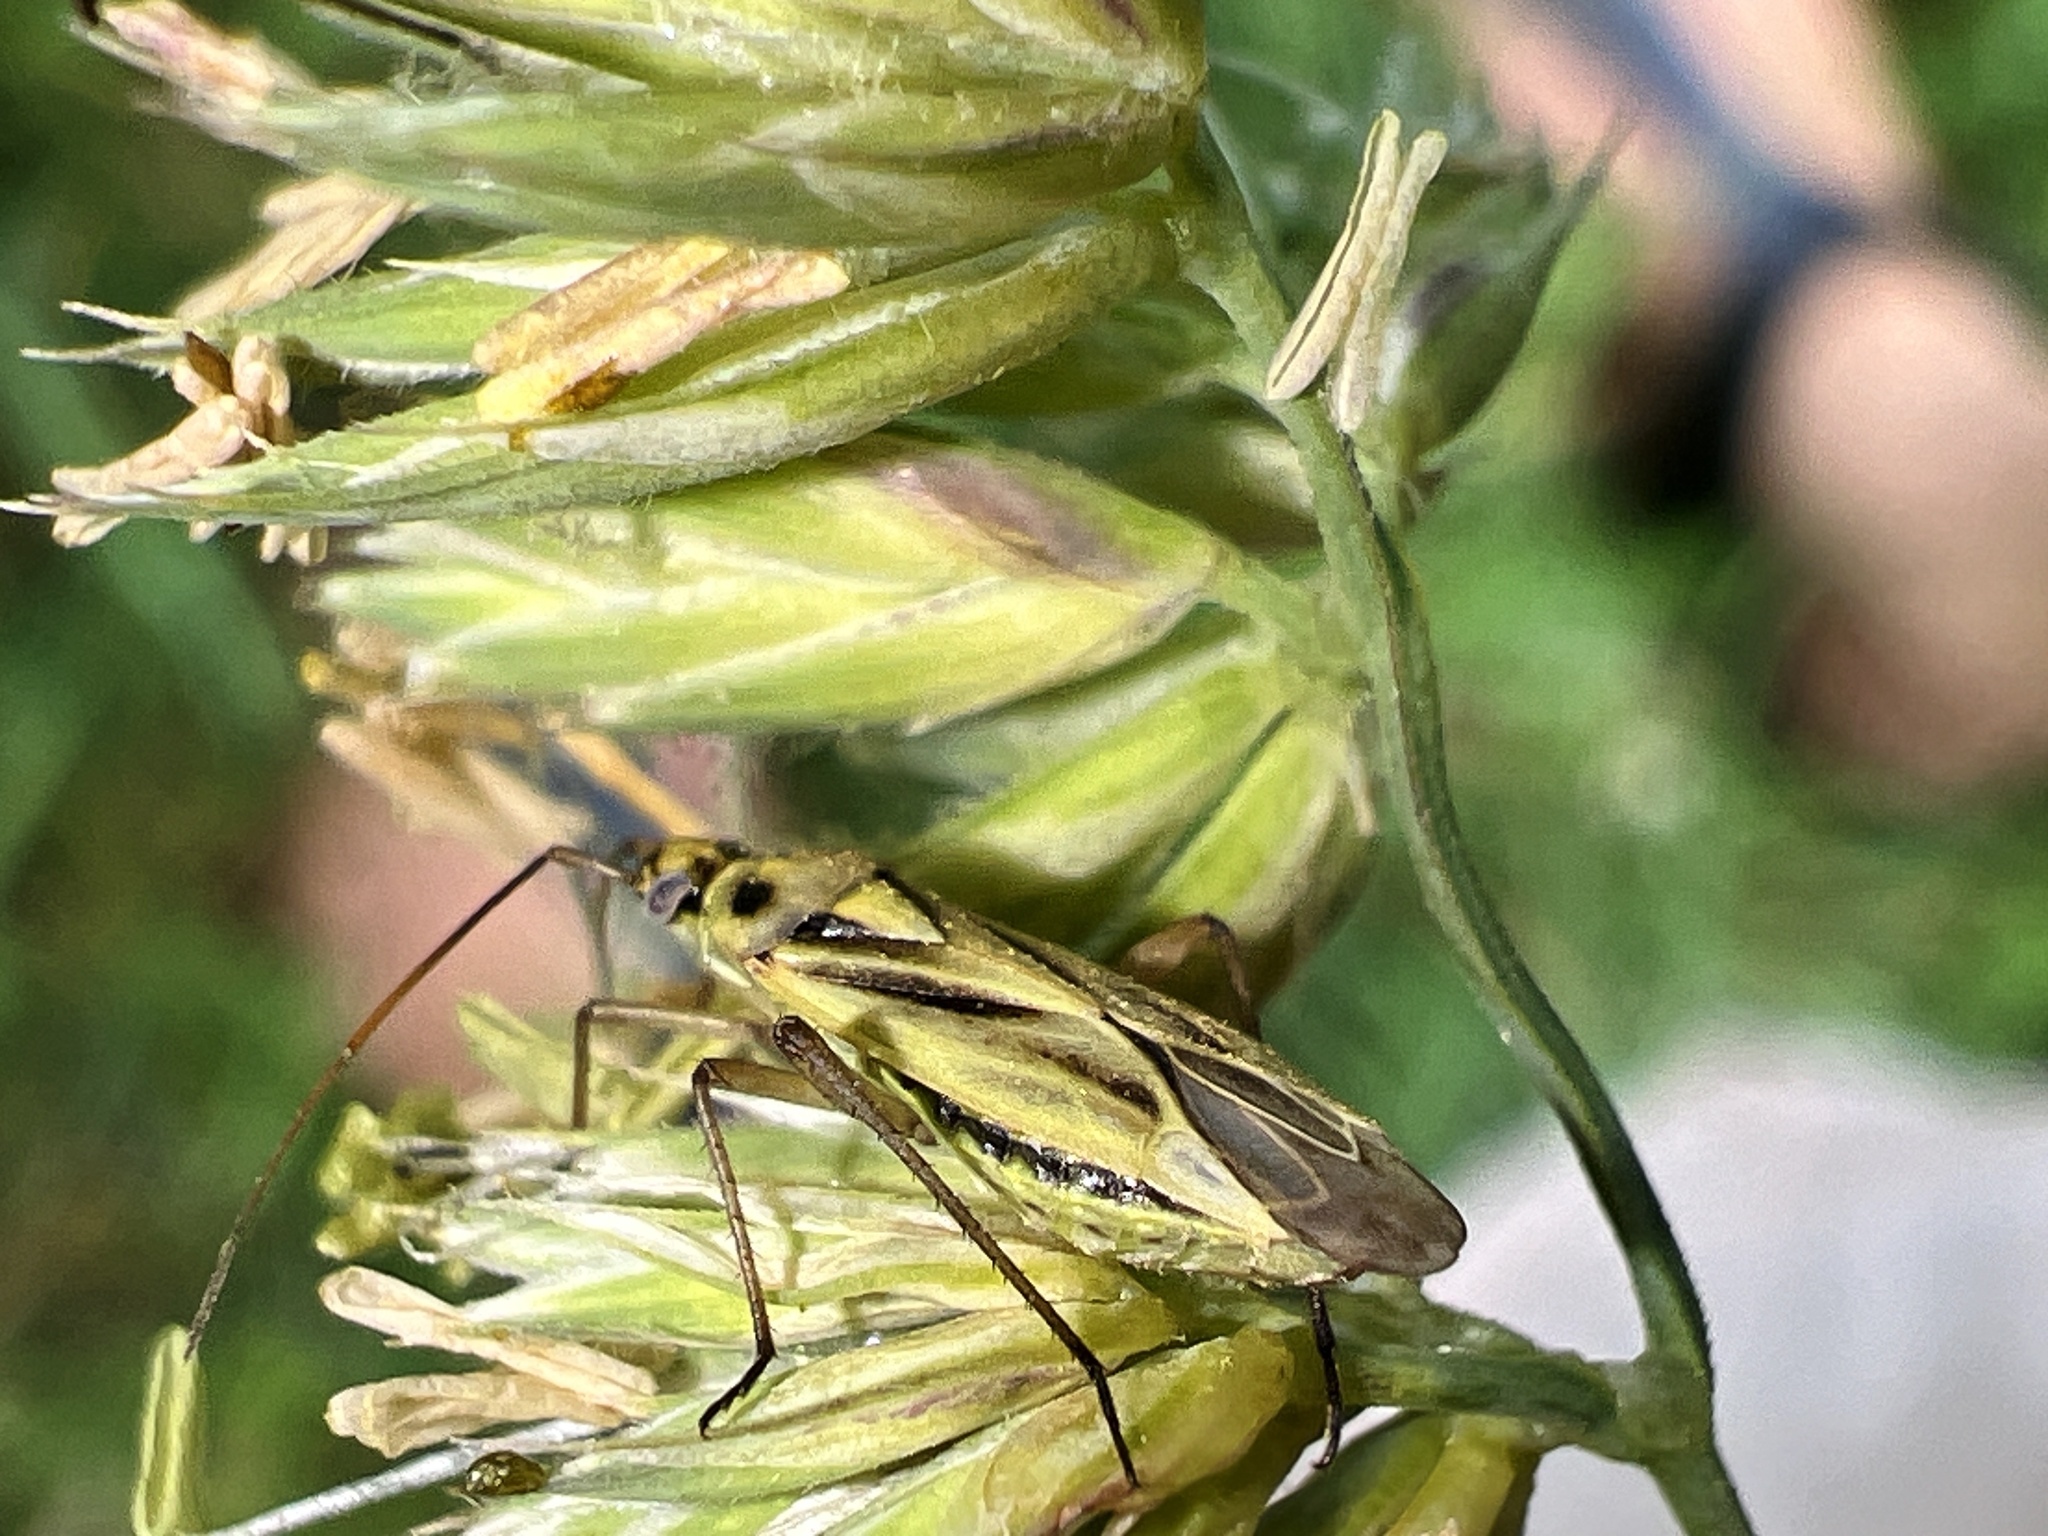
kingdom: Animalia
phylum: Arthropoda
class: Insecta
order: Hemiptera
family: Miridae
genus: Stenotus
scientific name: Stenotus binotatus
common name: Plant bug
